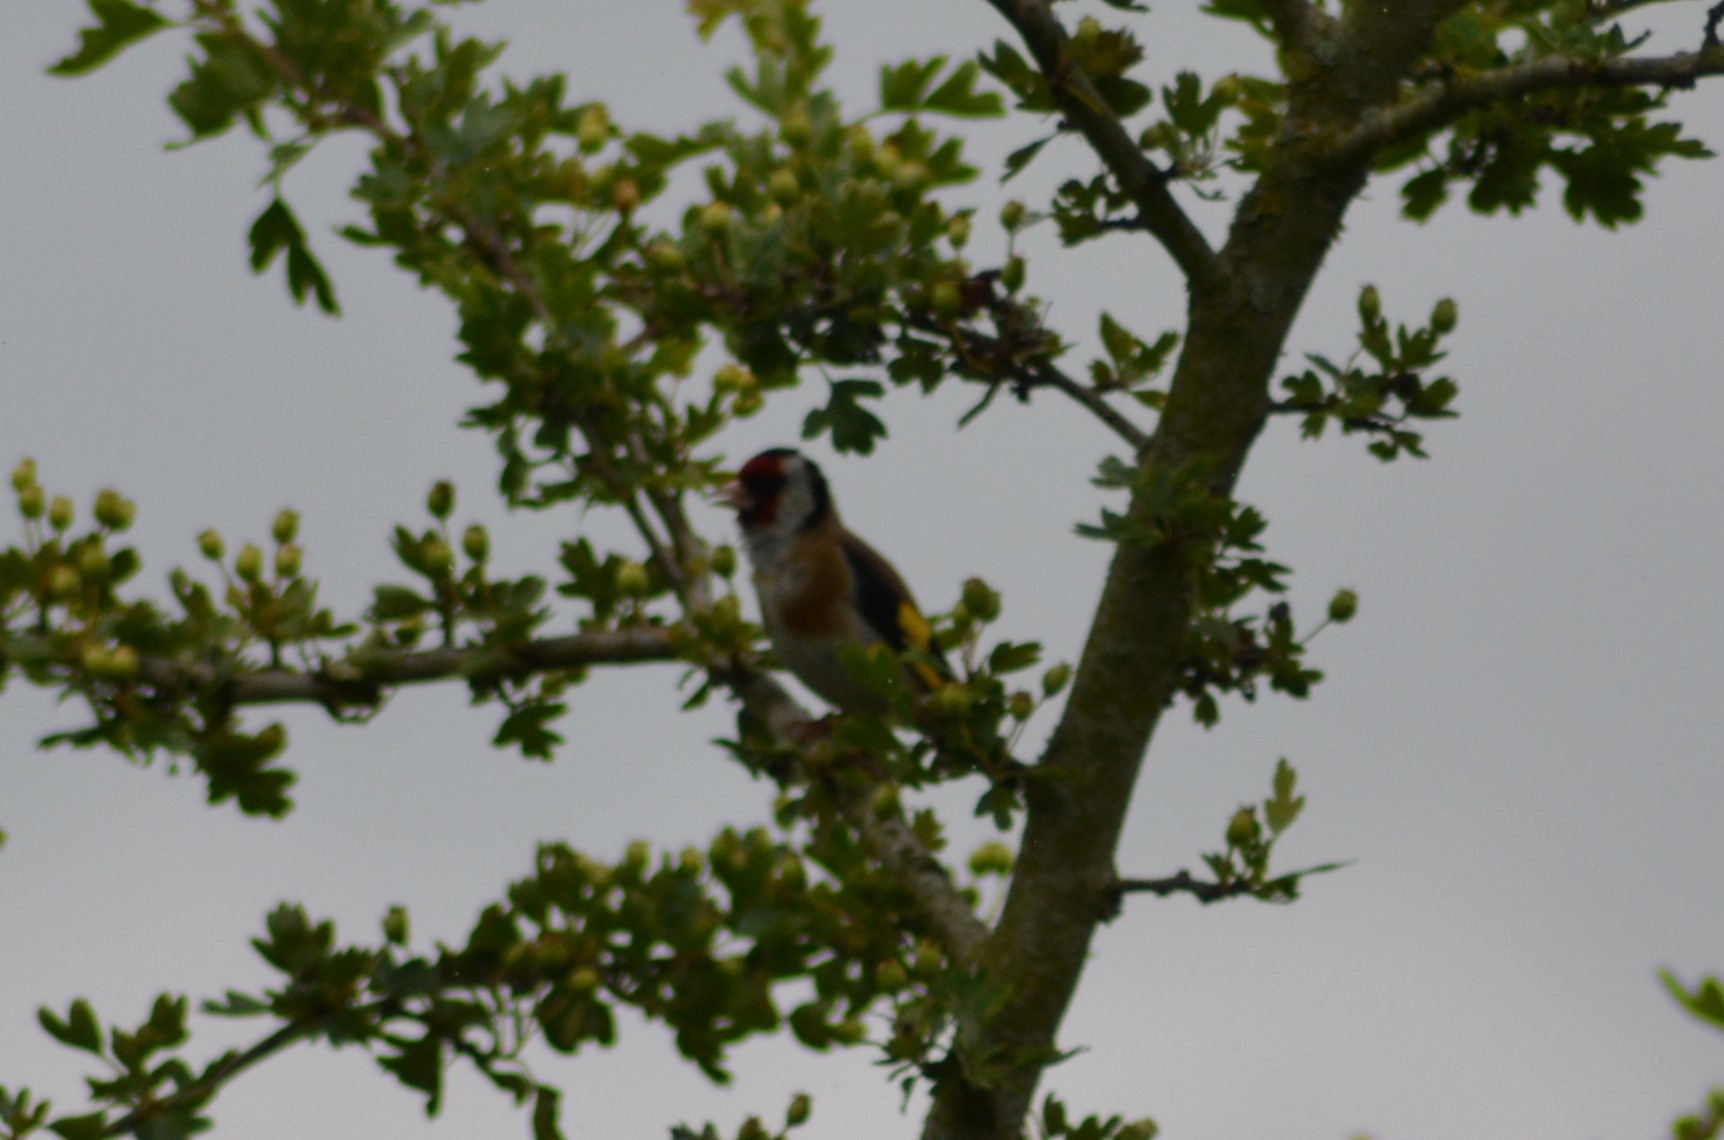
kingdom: Animalia
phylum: Chordata
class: Aves
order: Passeriformes
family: Fringillidae
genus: Carduelis
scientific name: Carduelis carduelis
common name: European goldfinch
